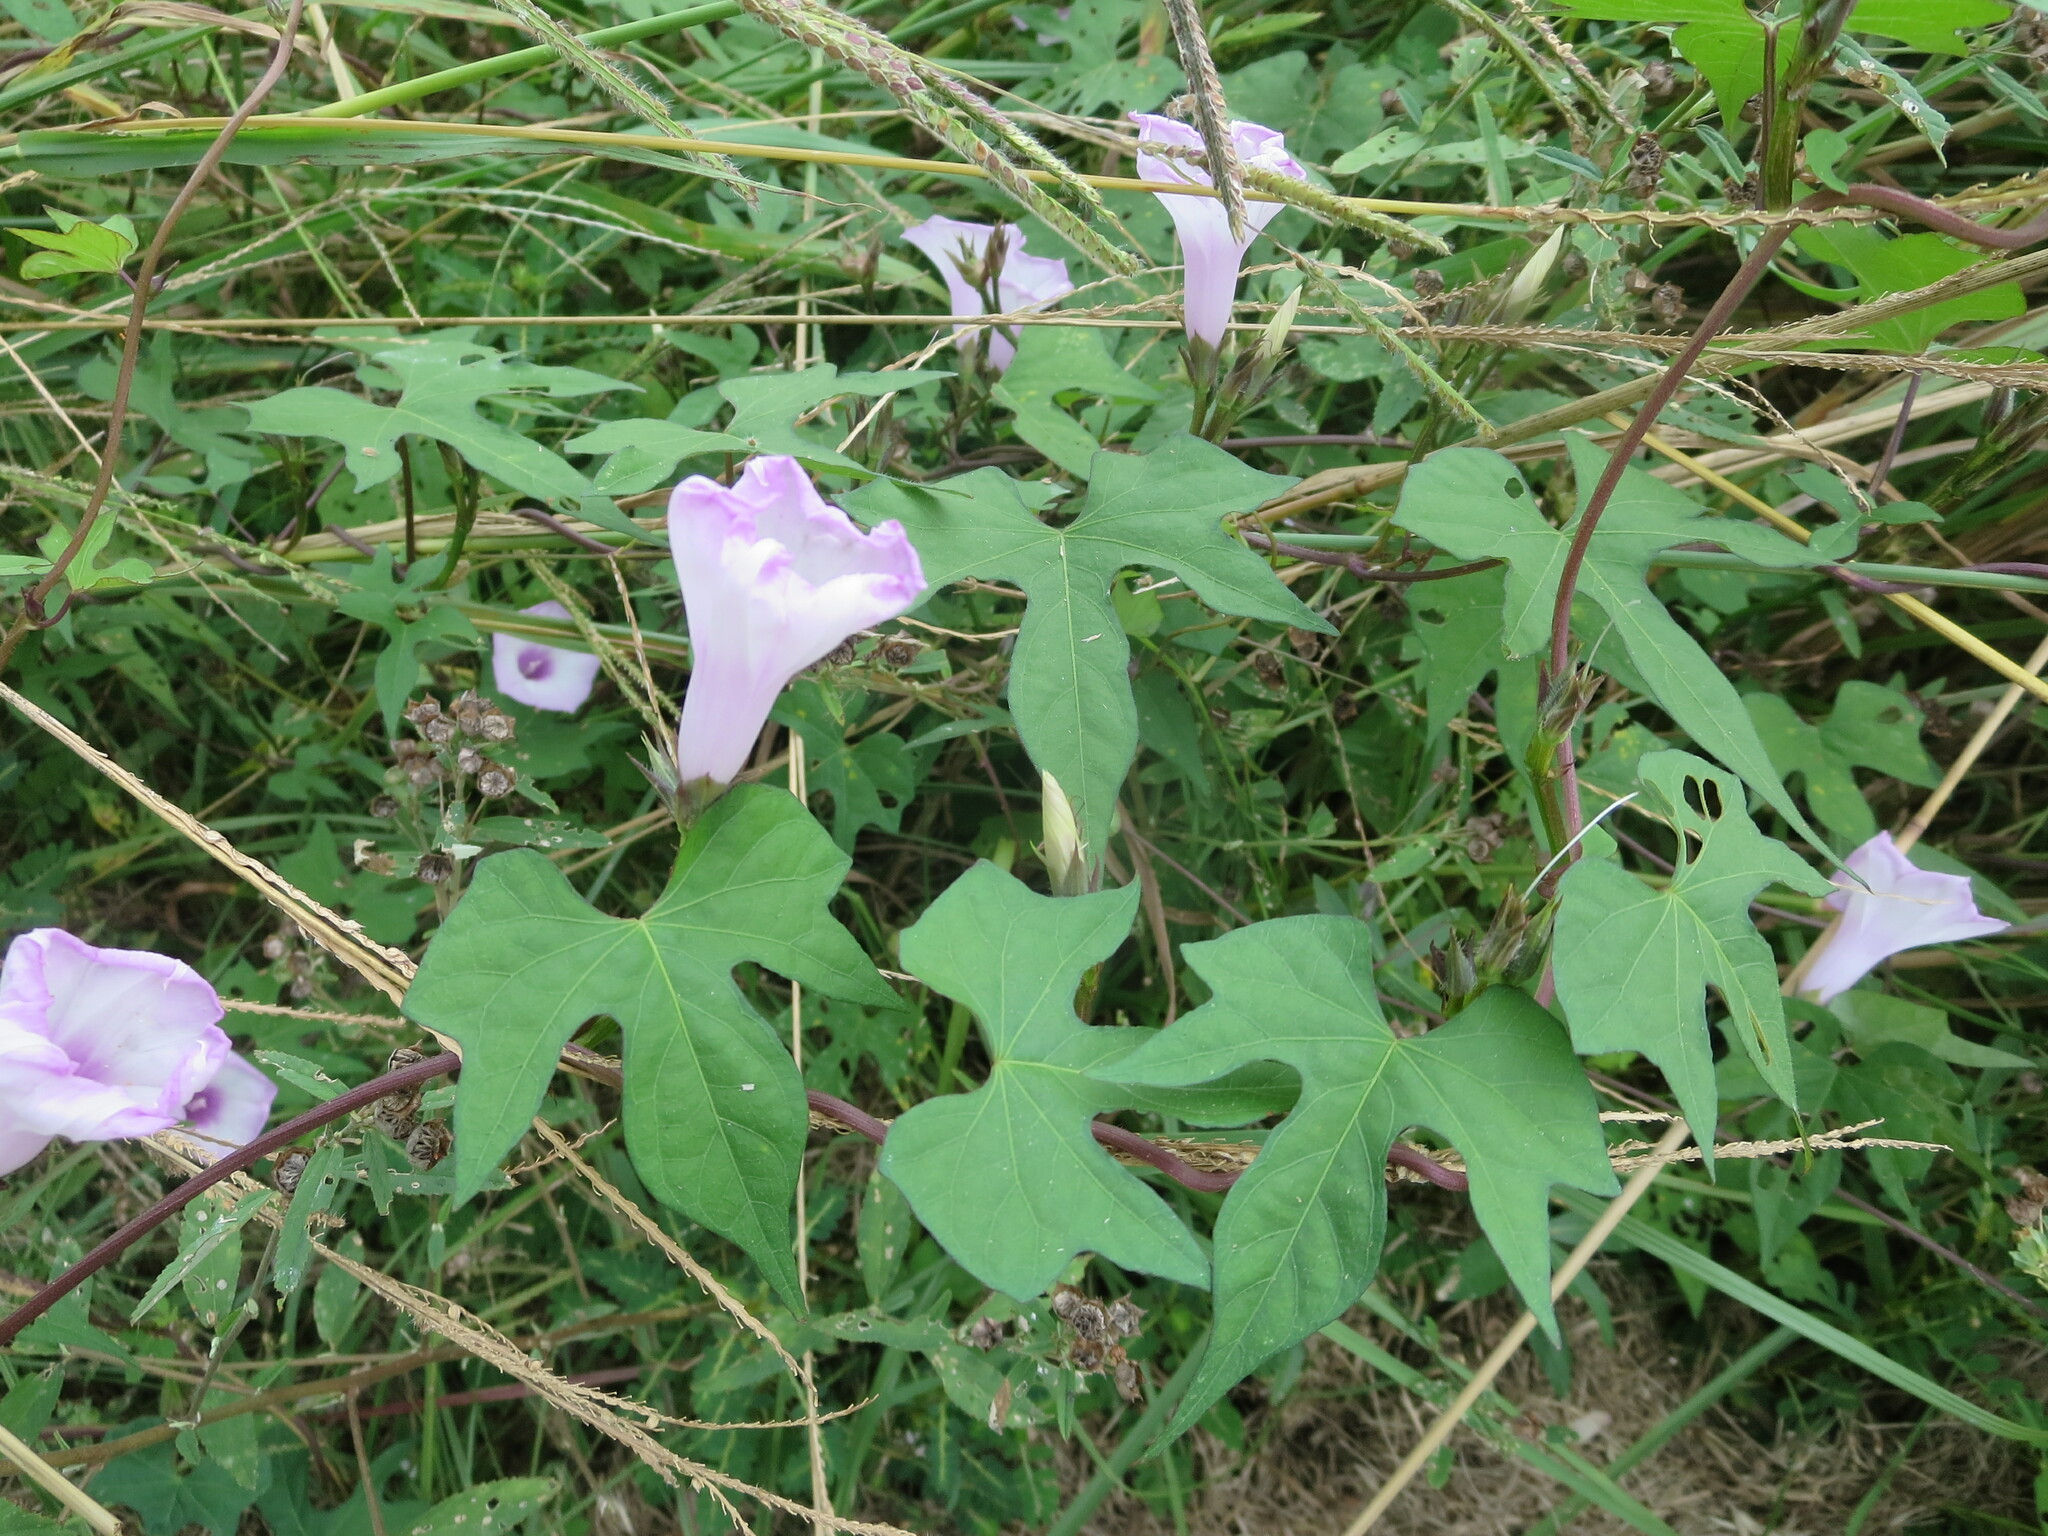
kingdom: Plantae
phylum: Tracheophyta
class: Magnoliopsida
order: Solanales
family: Convolvulaceae
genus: Ipomoea
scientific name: Ipomoea cordatotriloba
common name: Cotton morning glory
